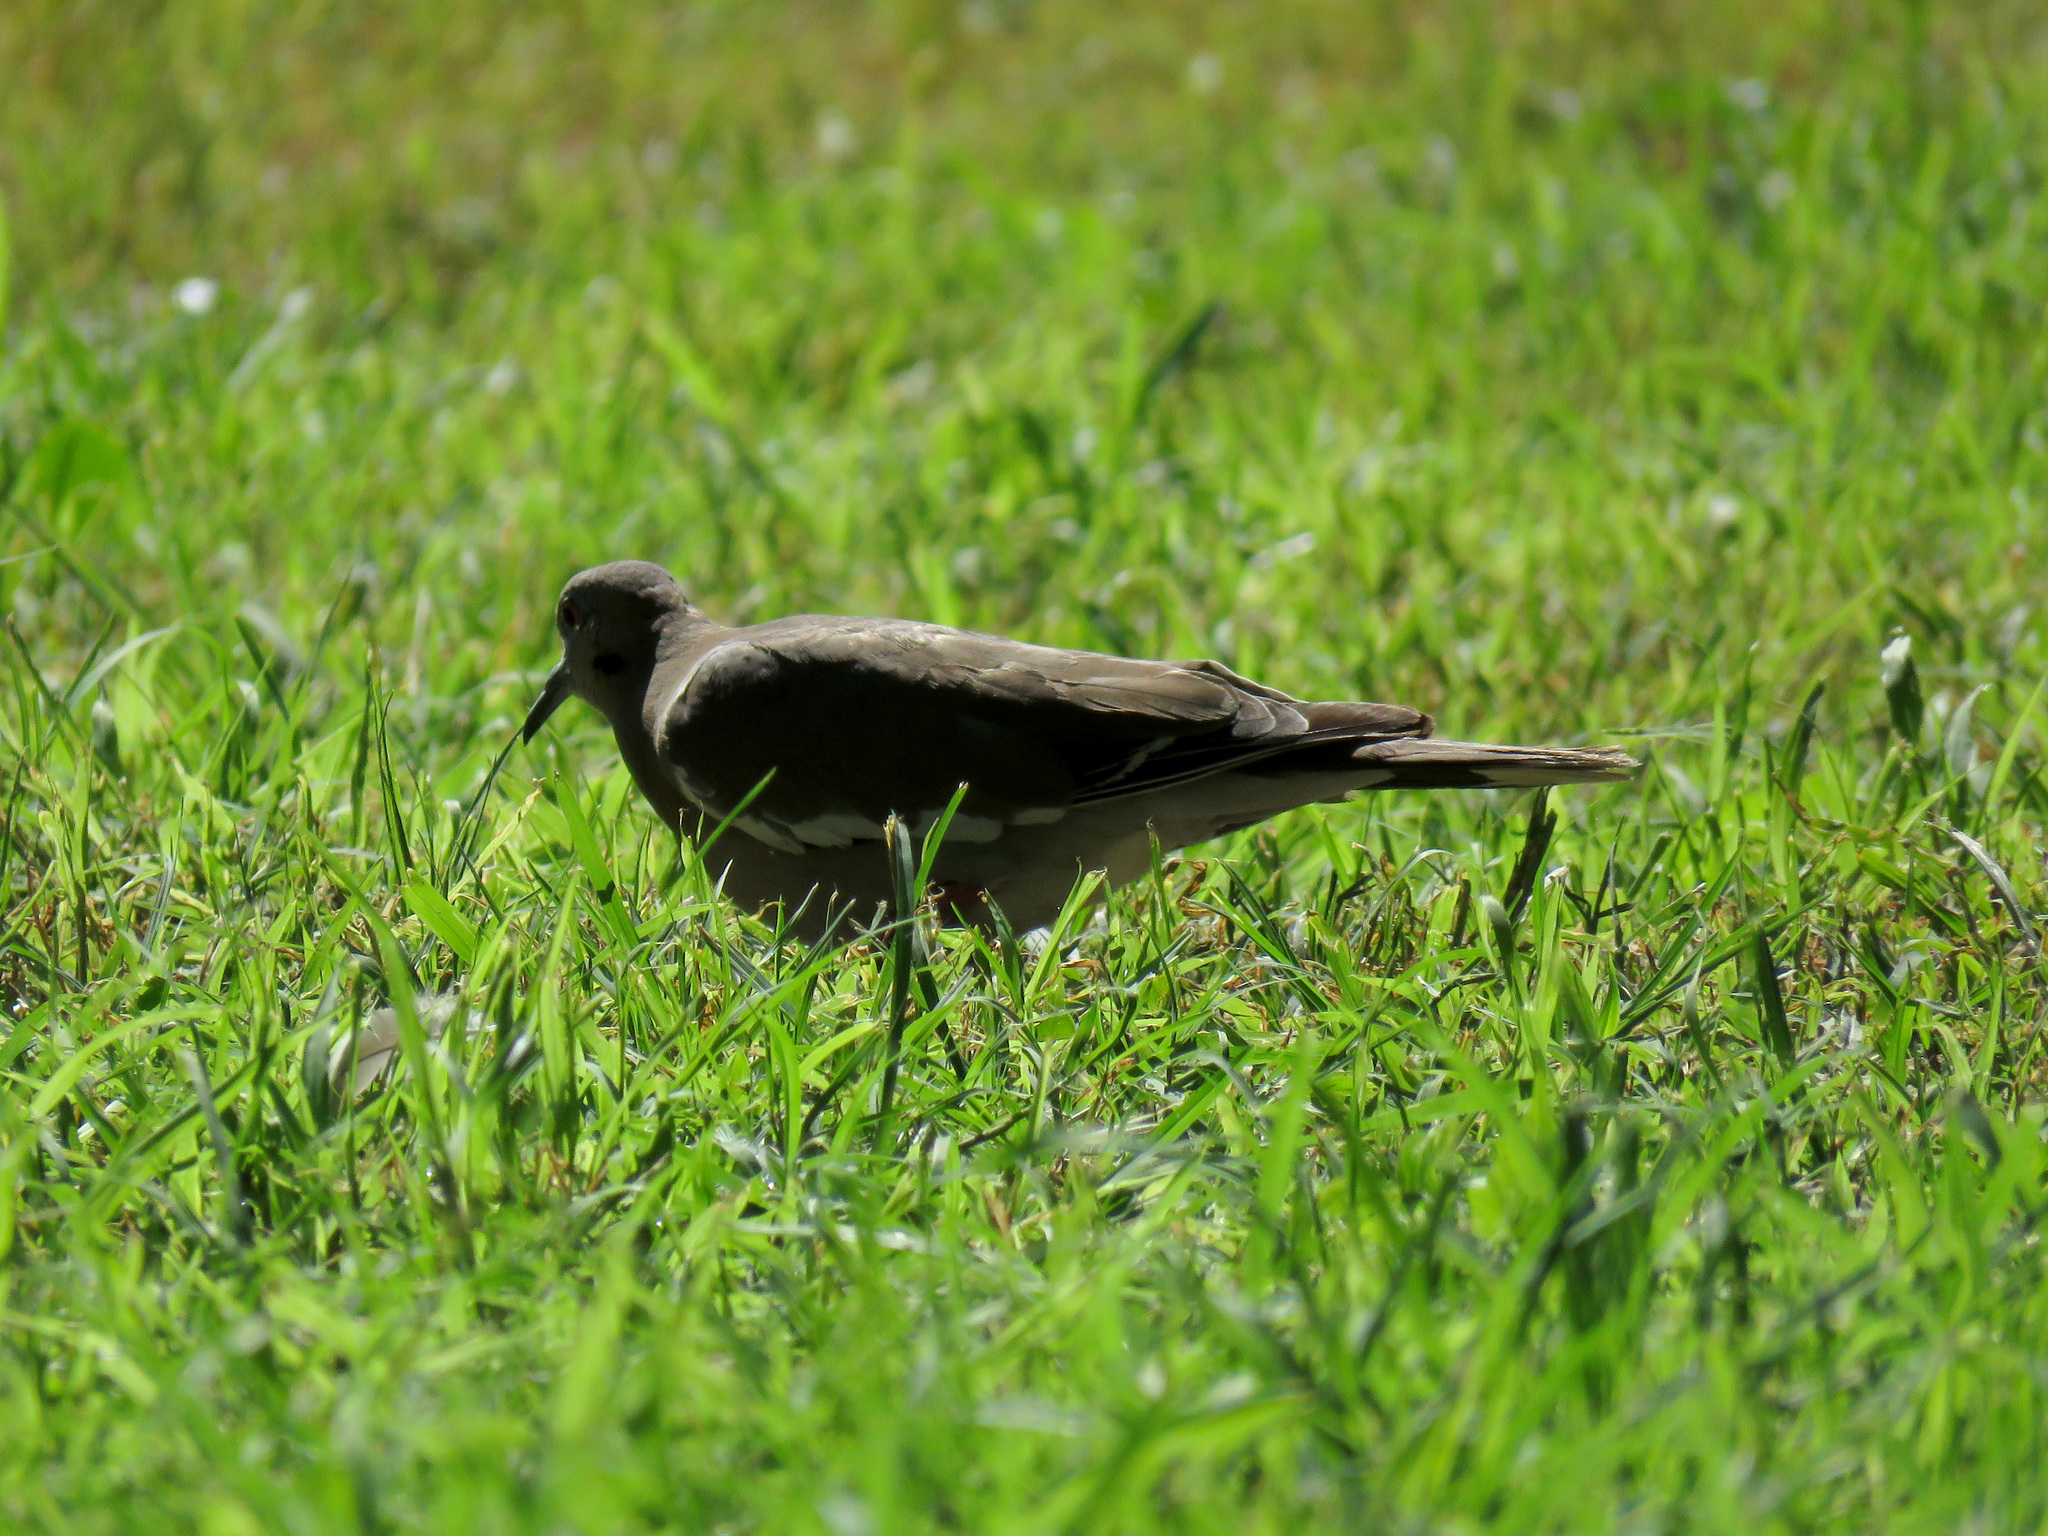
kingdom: Animalia
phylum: Chordata
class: Aves
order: Columbiformes
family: Columbidae
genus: Zenaida
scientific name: Zenaida asiatica
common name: White-winged dove
